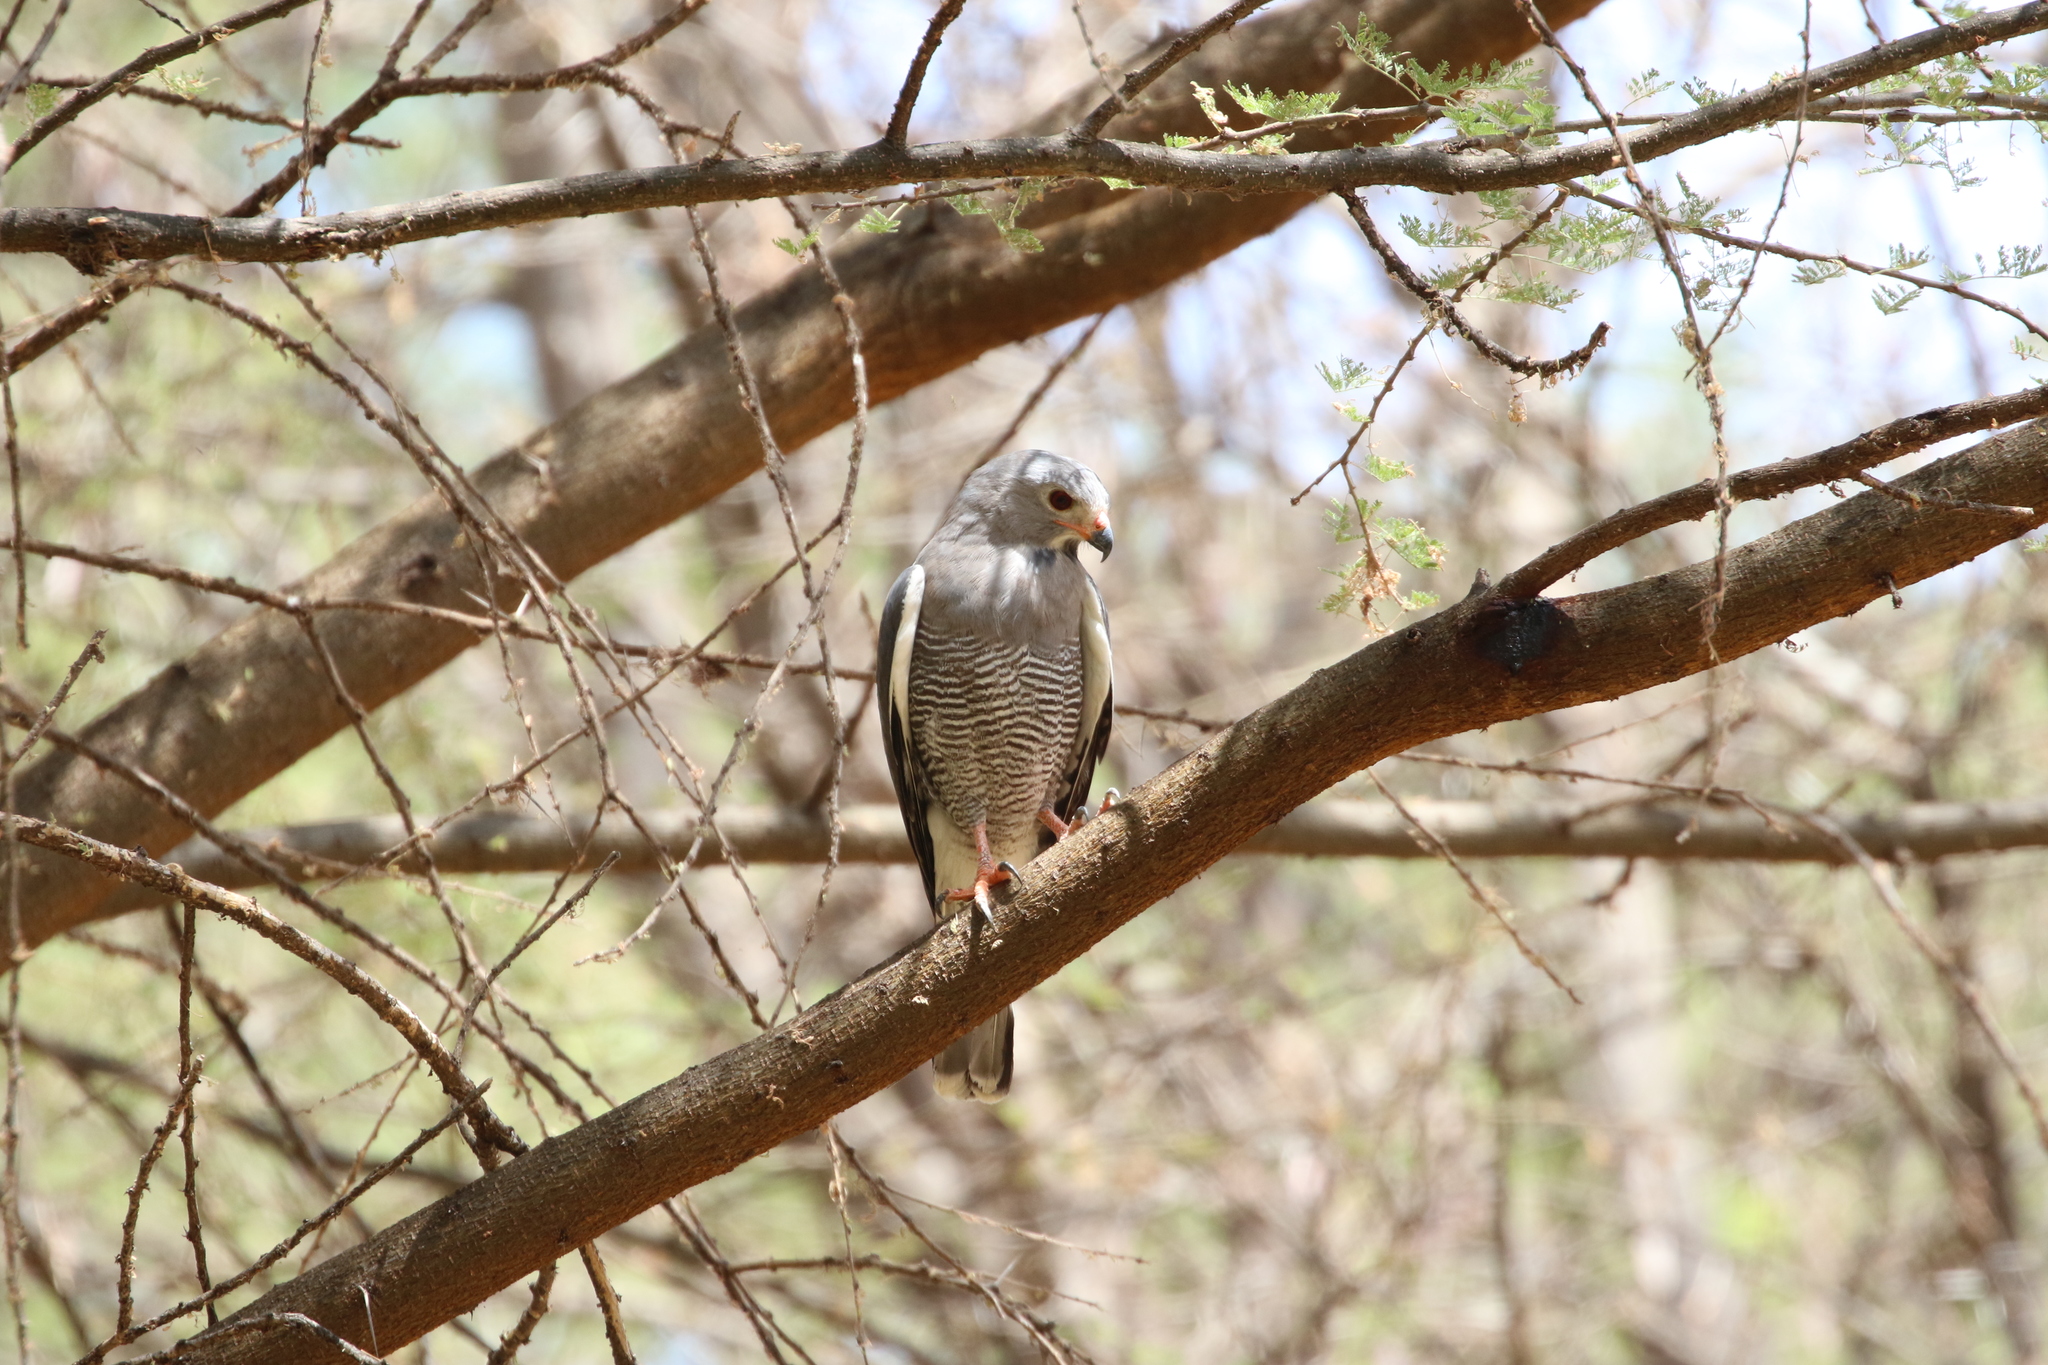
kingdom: Animalia
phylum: Chordata
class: Aves
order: Accipitriformes
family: Accipitridae
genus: Kaupifalco
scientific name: Kaupifalco monogrammicus
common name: Lizard buzzard
